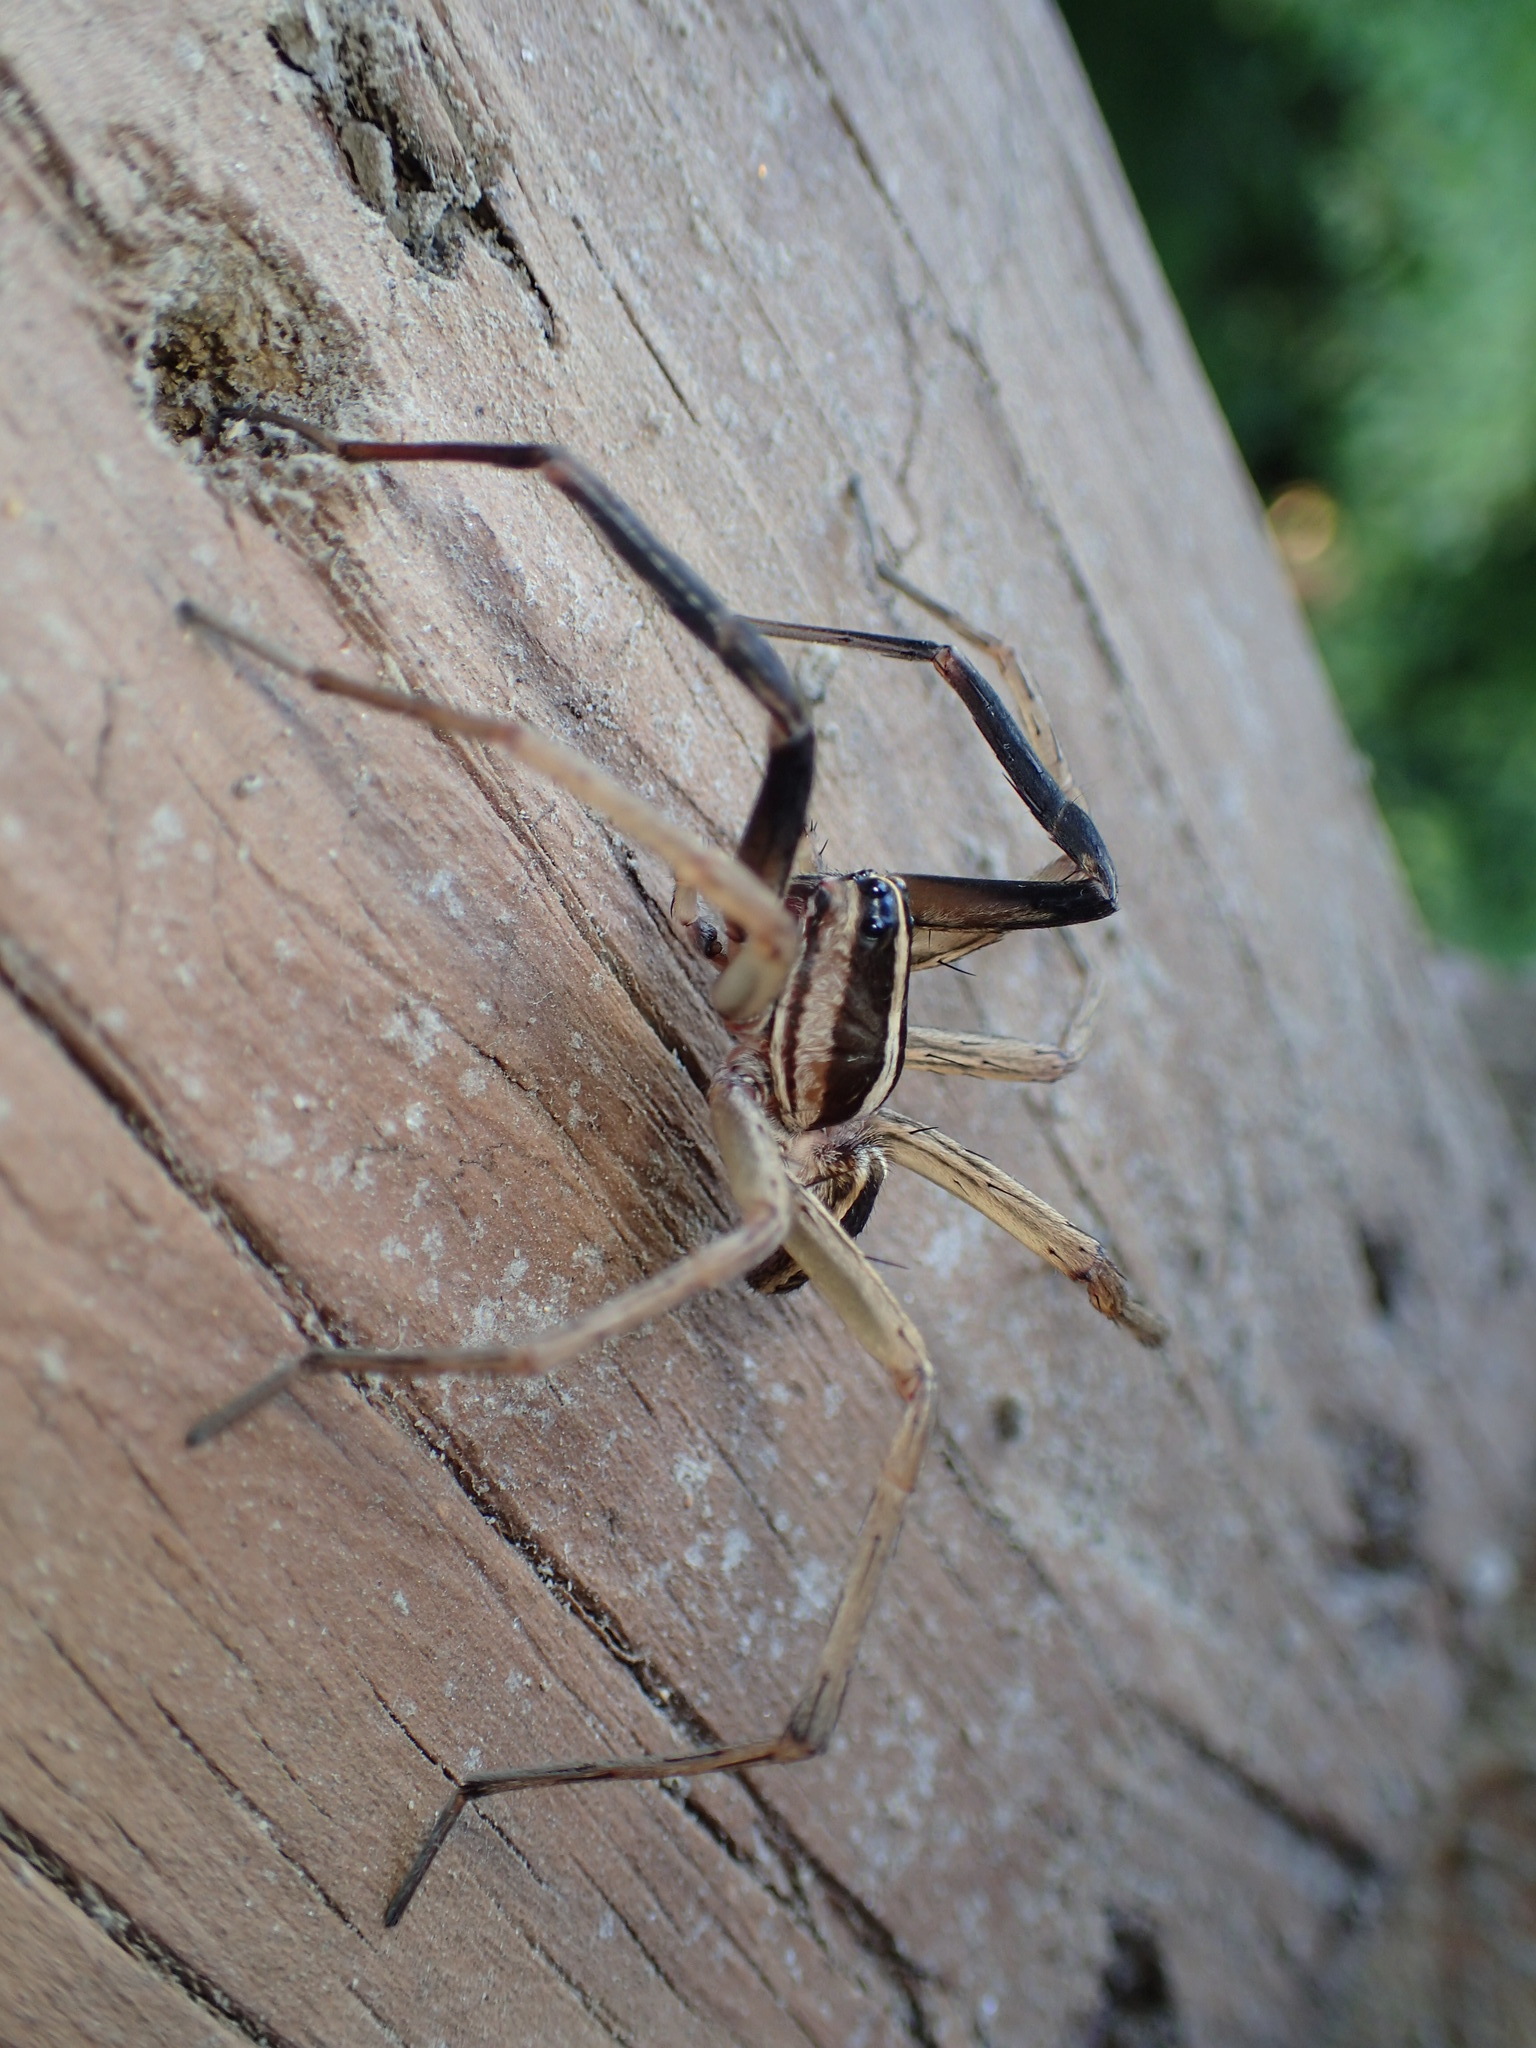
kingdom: Animalia
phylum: Arthropoda
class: Arachnida
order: Araneae
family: Lycosidae
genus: Rabidosa
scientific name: Rabidosa rabida
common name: Rabid wolf spider
